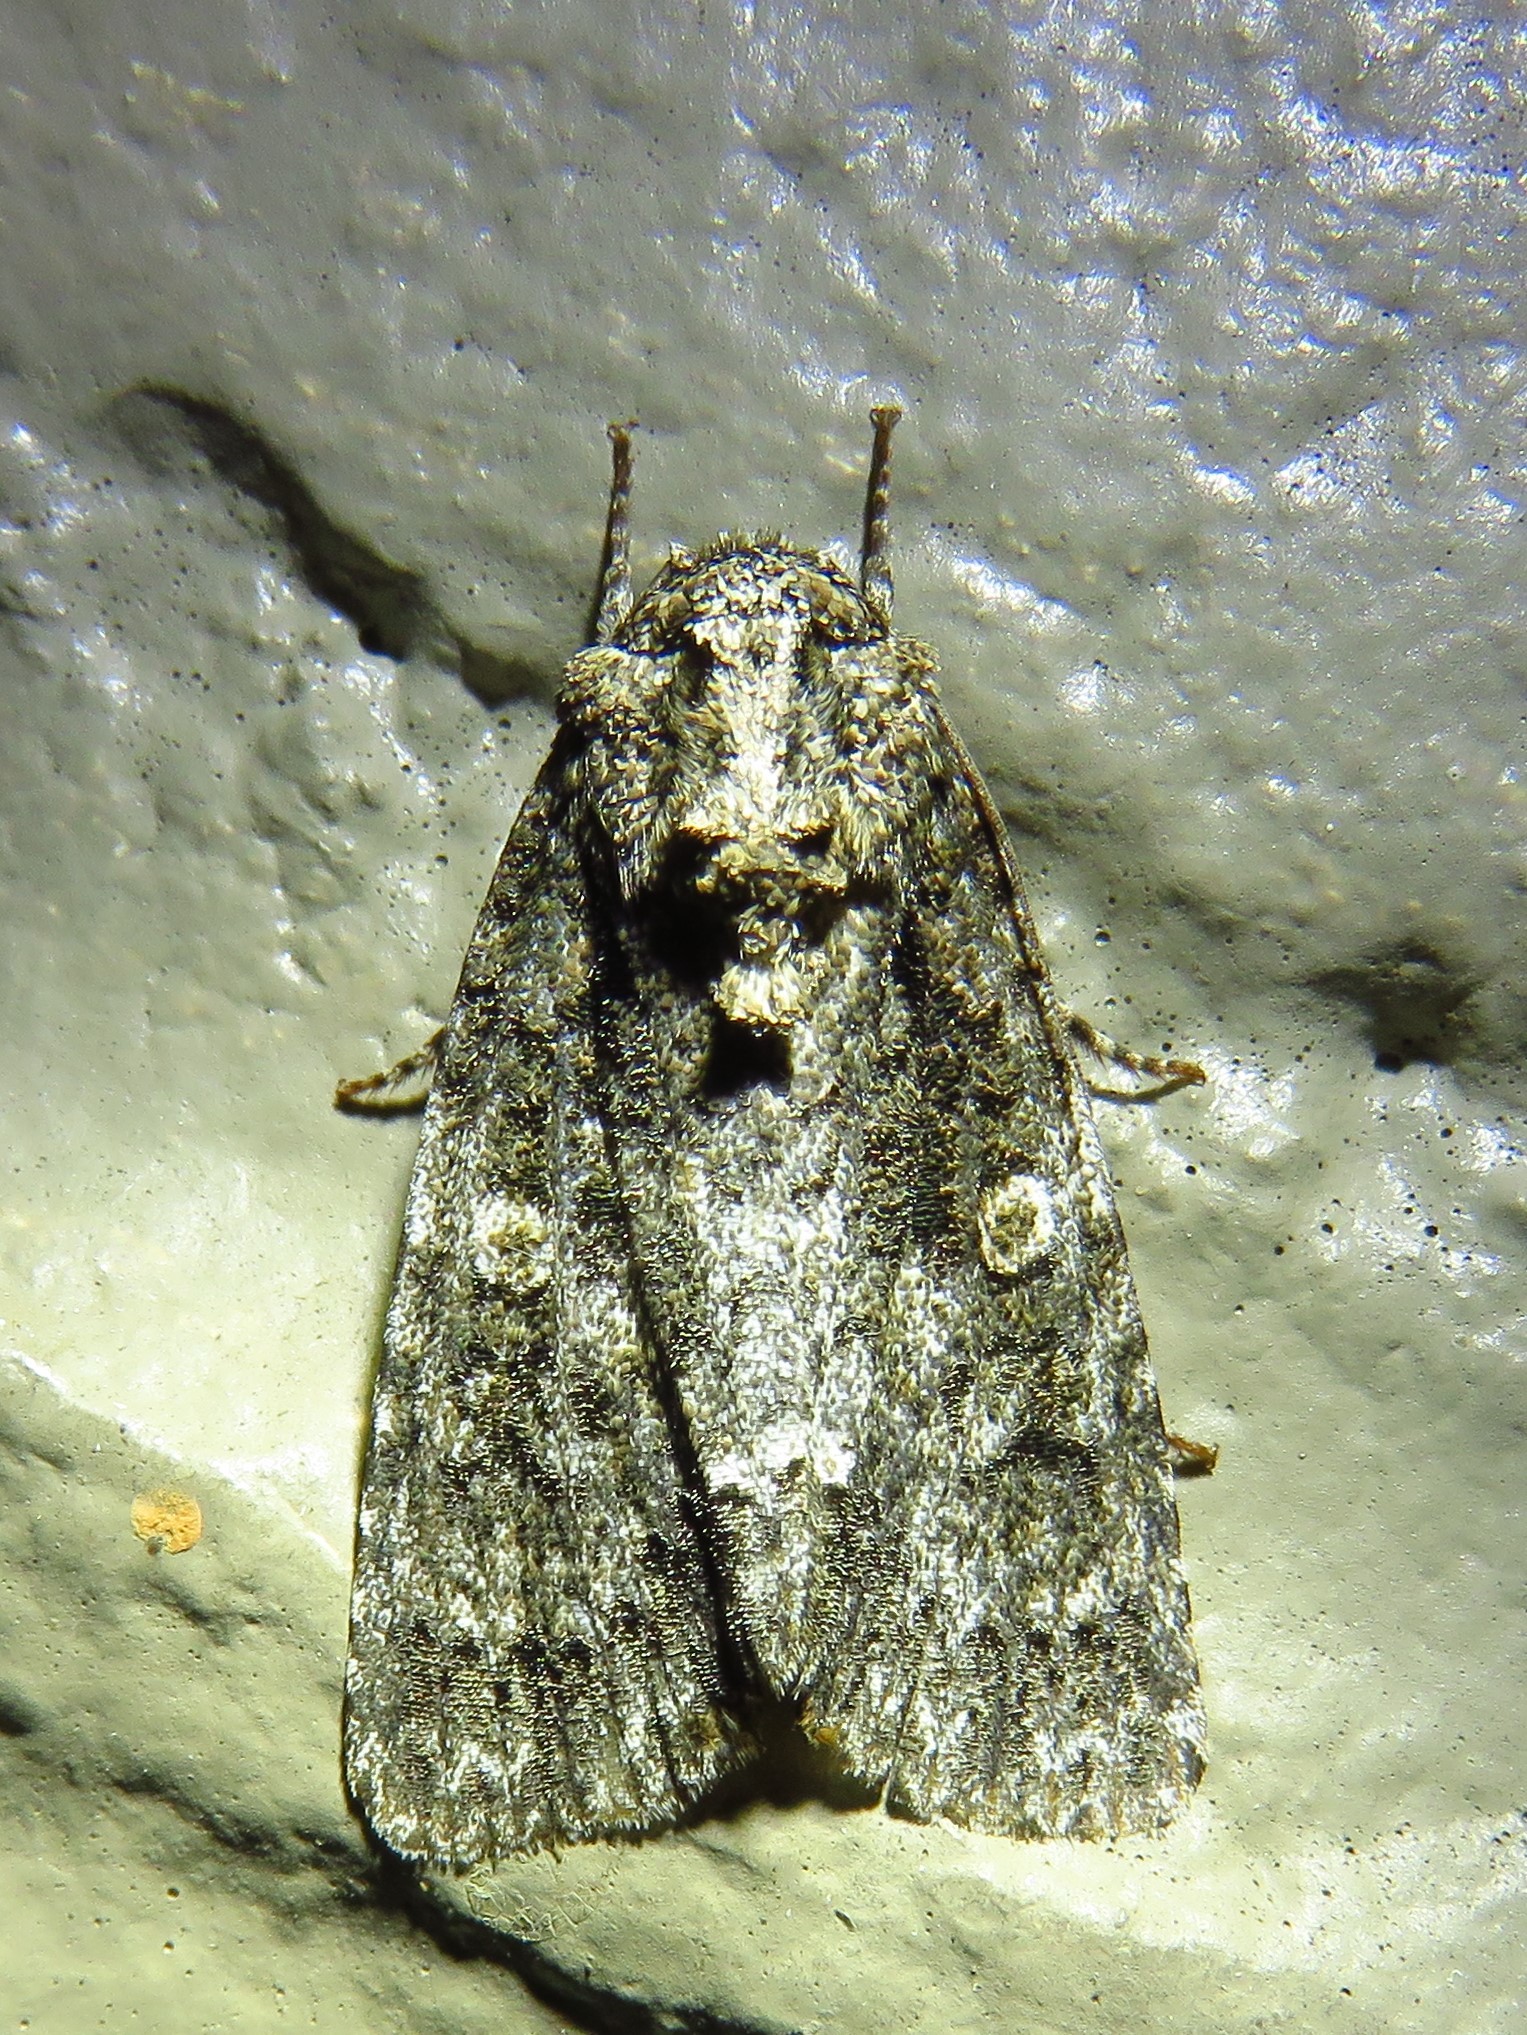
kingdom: Animalia
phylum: Arthropoda
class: Insecta
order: Lepidoptera
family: Noctuidae
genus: Acronicta
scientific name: Acronicta afflicta
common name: Afflicted dagger moth
